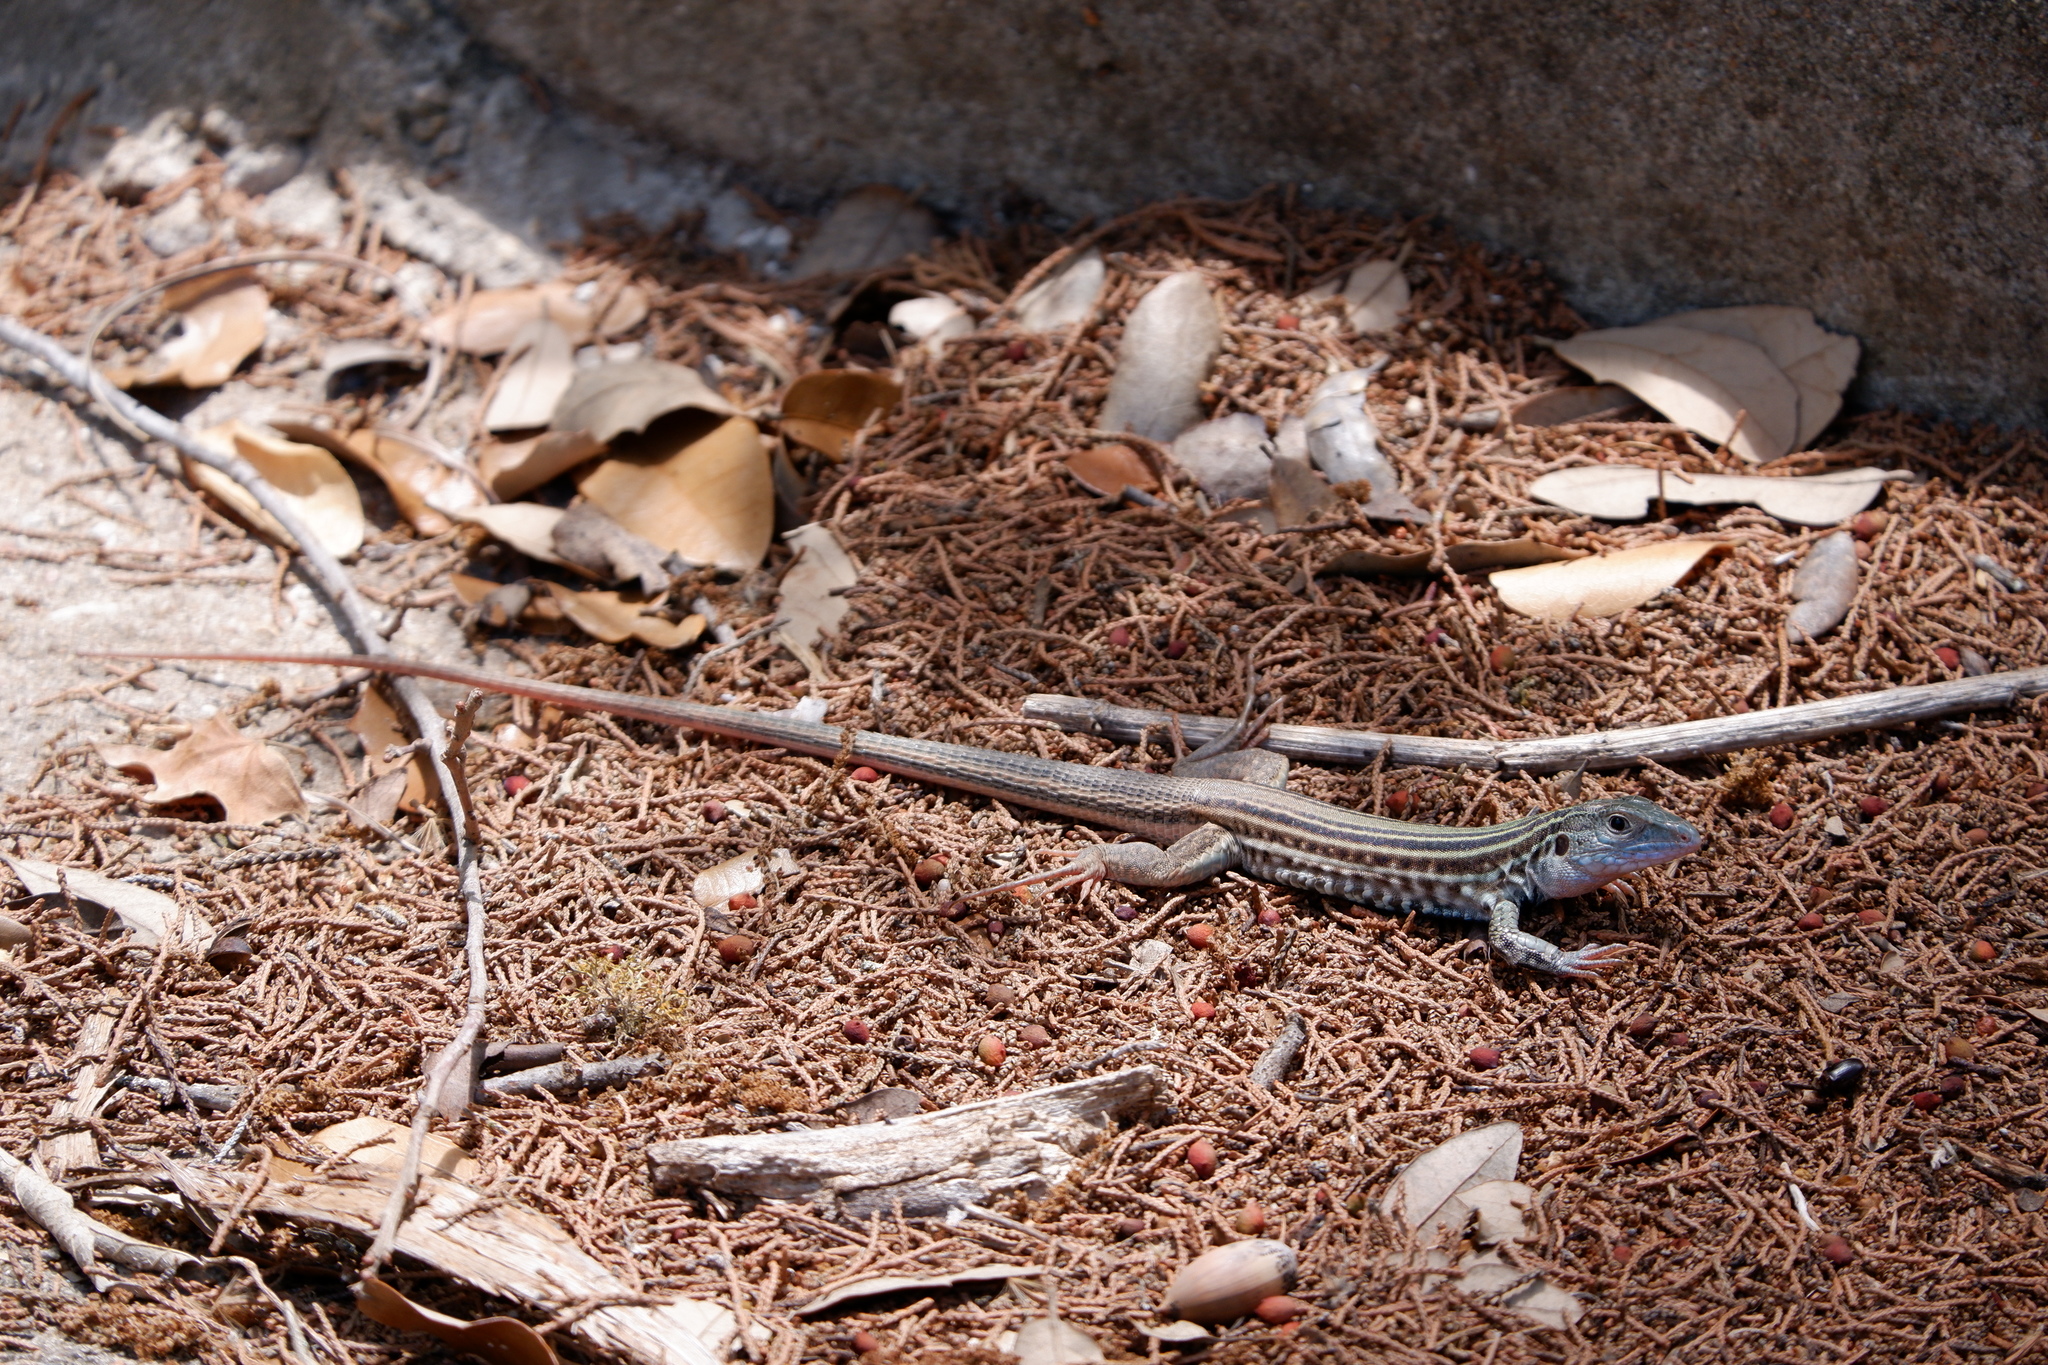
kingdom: Animalia
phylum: Chordata
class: Squamata
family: Teiidae
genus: Aspidoscelis
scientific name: Aspidoscelis gularis
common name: Eastern spotted whiptail
